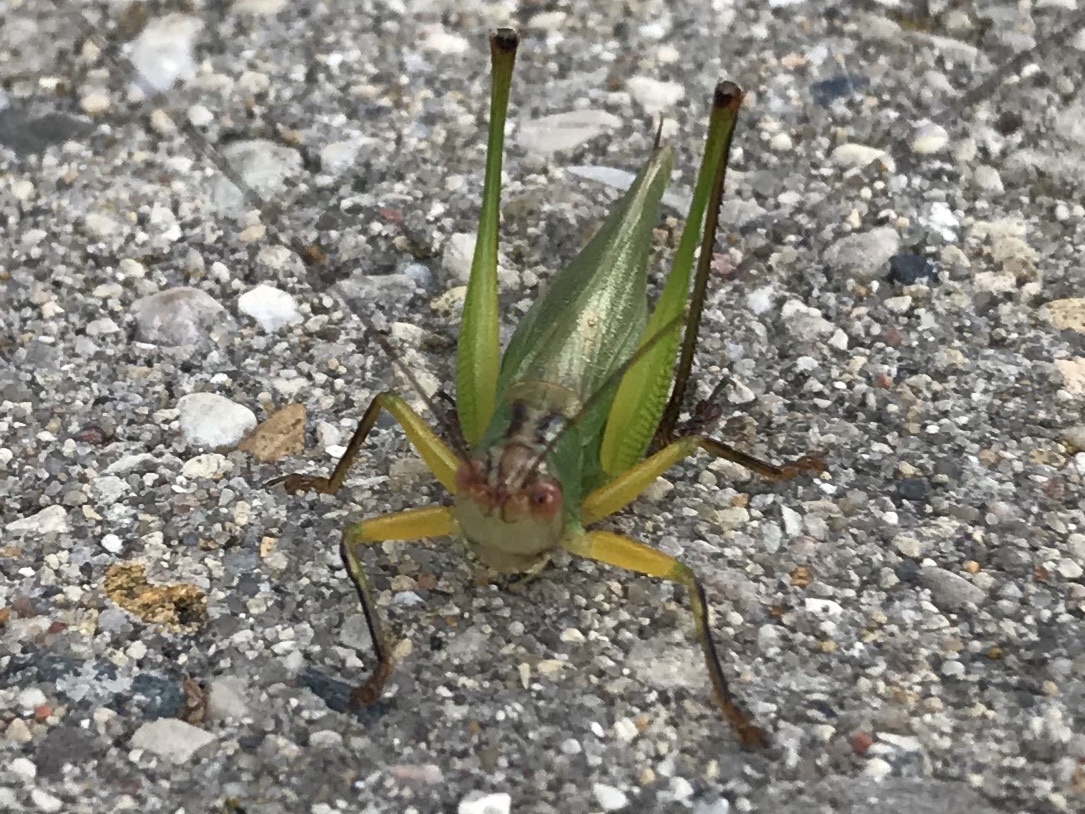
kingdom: Animalia
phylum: Arthropoda
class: Insecta
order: Orthoptera
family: Tettigoniidae
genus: Orchelimum
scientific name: Orchelimum nigripes
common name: Black-legged meadow katydid
